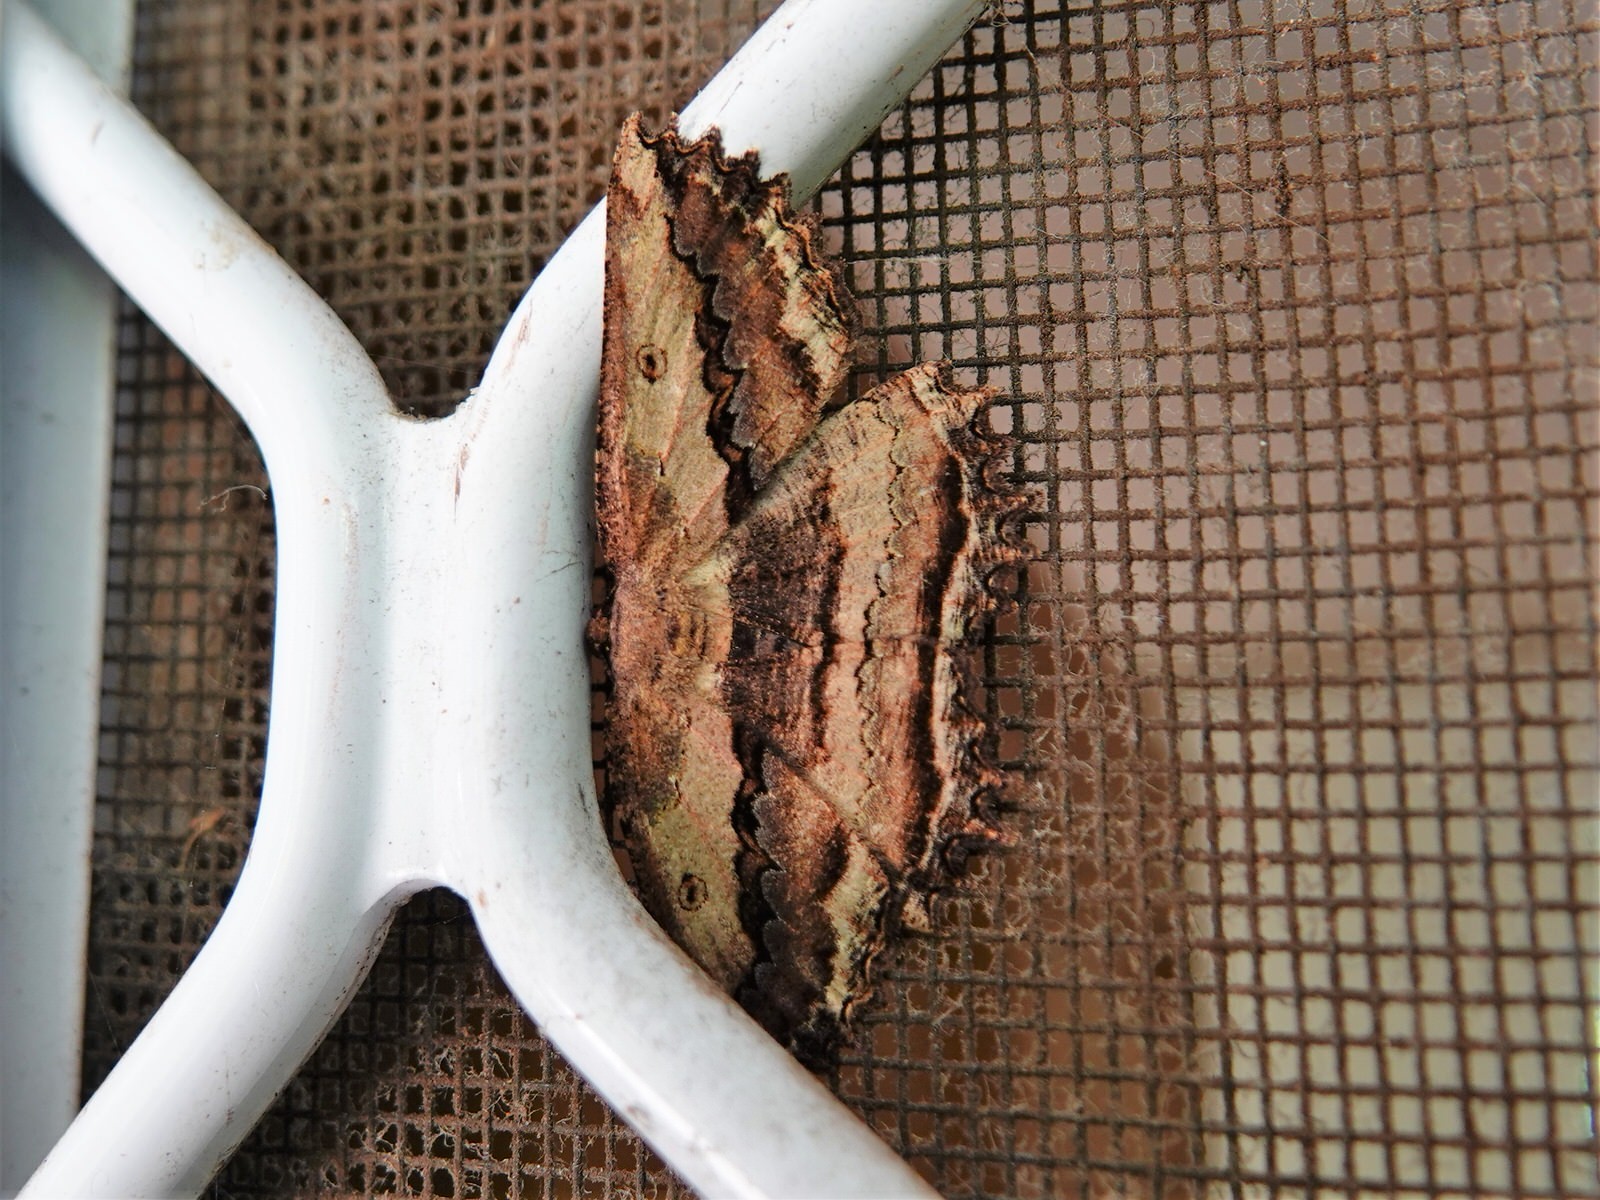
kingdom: Animalia
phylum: Arthropoda
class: Insecta
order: Lepidoptera
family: Geometridae
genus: Gellonia
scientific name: Gellonia pannularia
